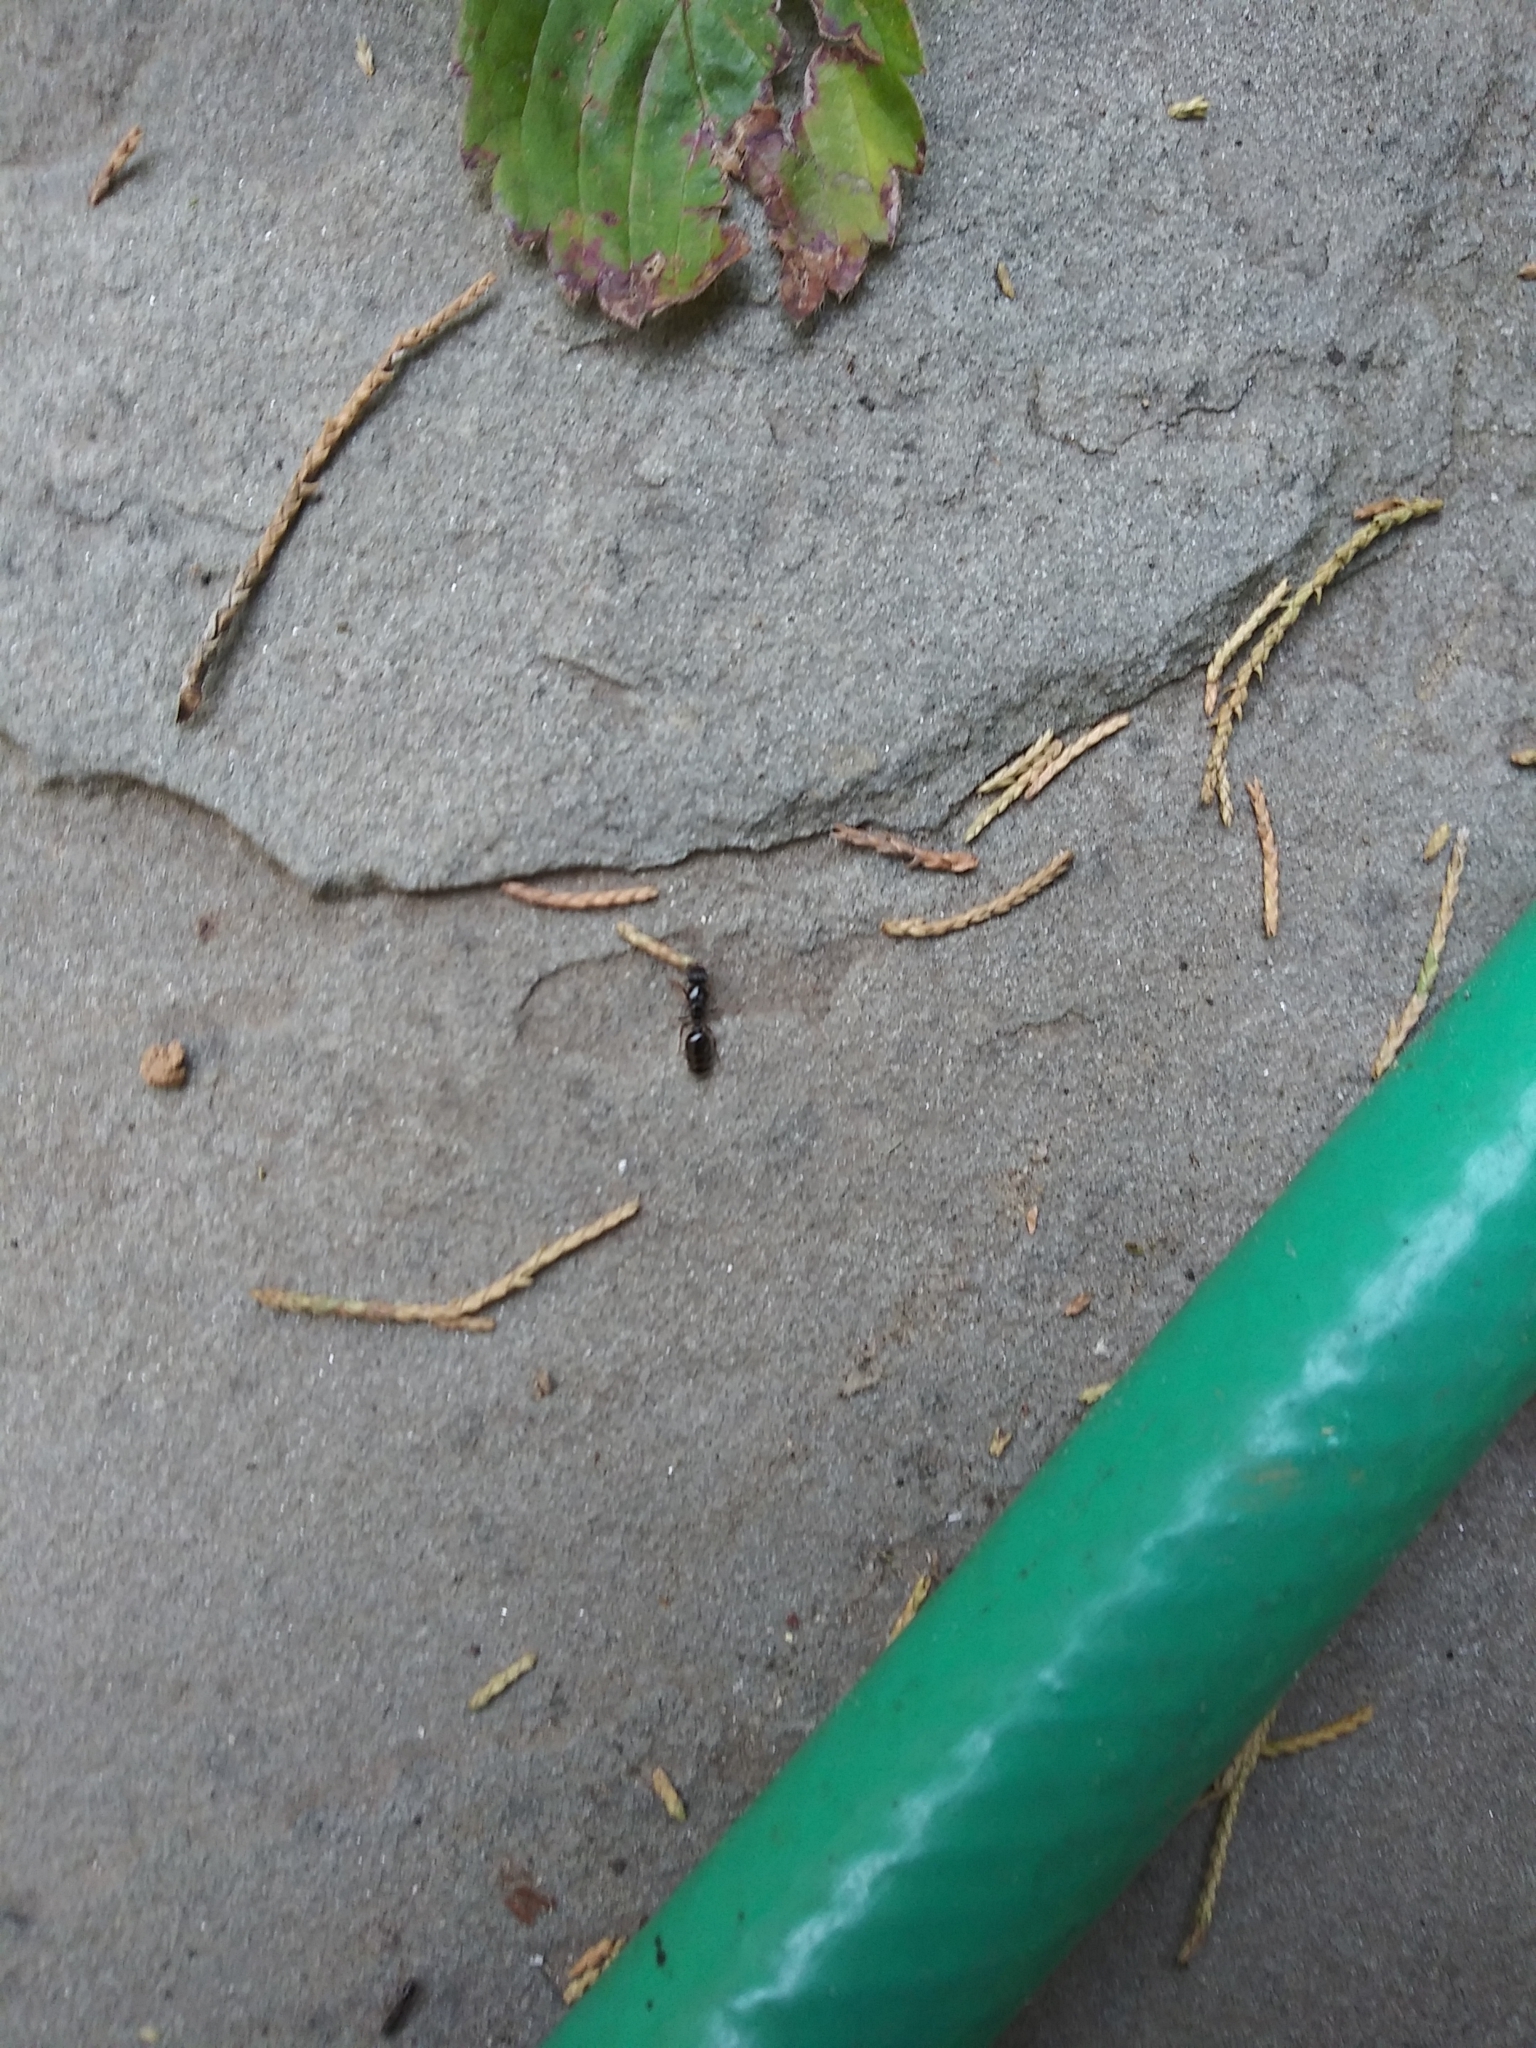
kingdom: Animalia
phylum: Arthropoda
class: Insecta
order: Hymenoptera
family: Formicidae
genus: Tetramorium
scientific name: Tetramorium immigrans
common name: Pavement ant
